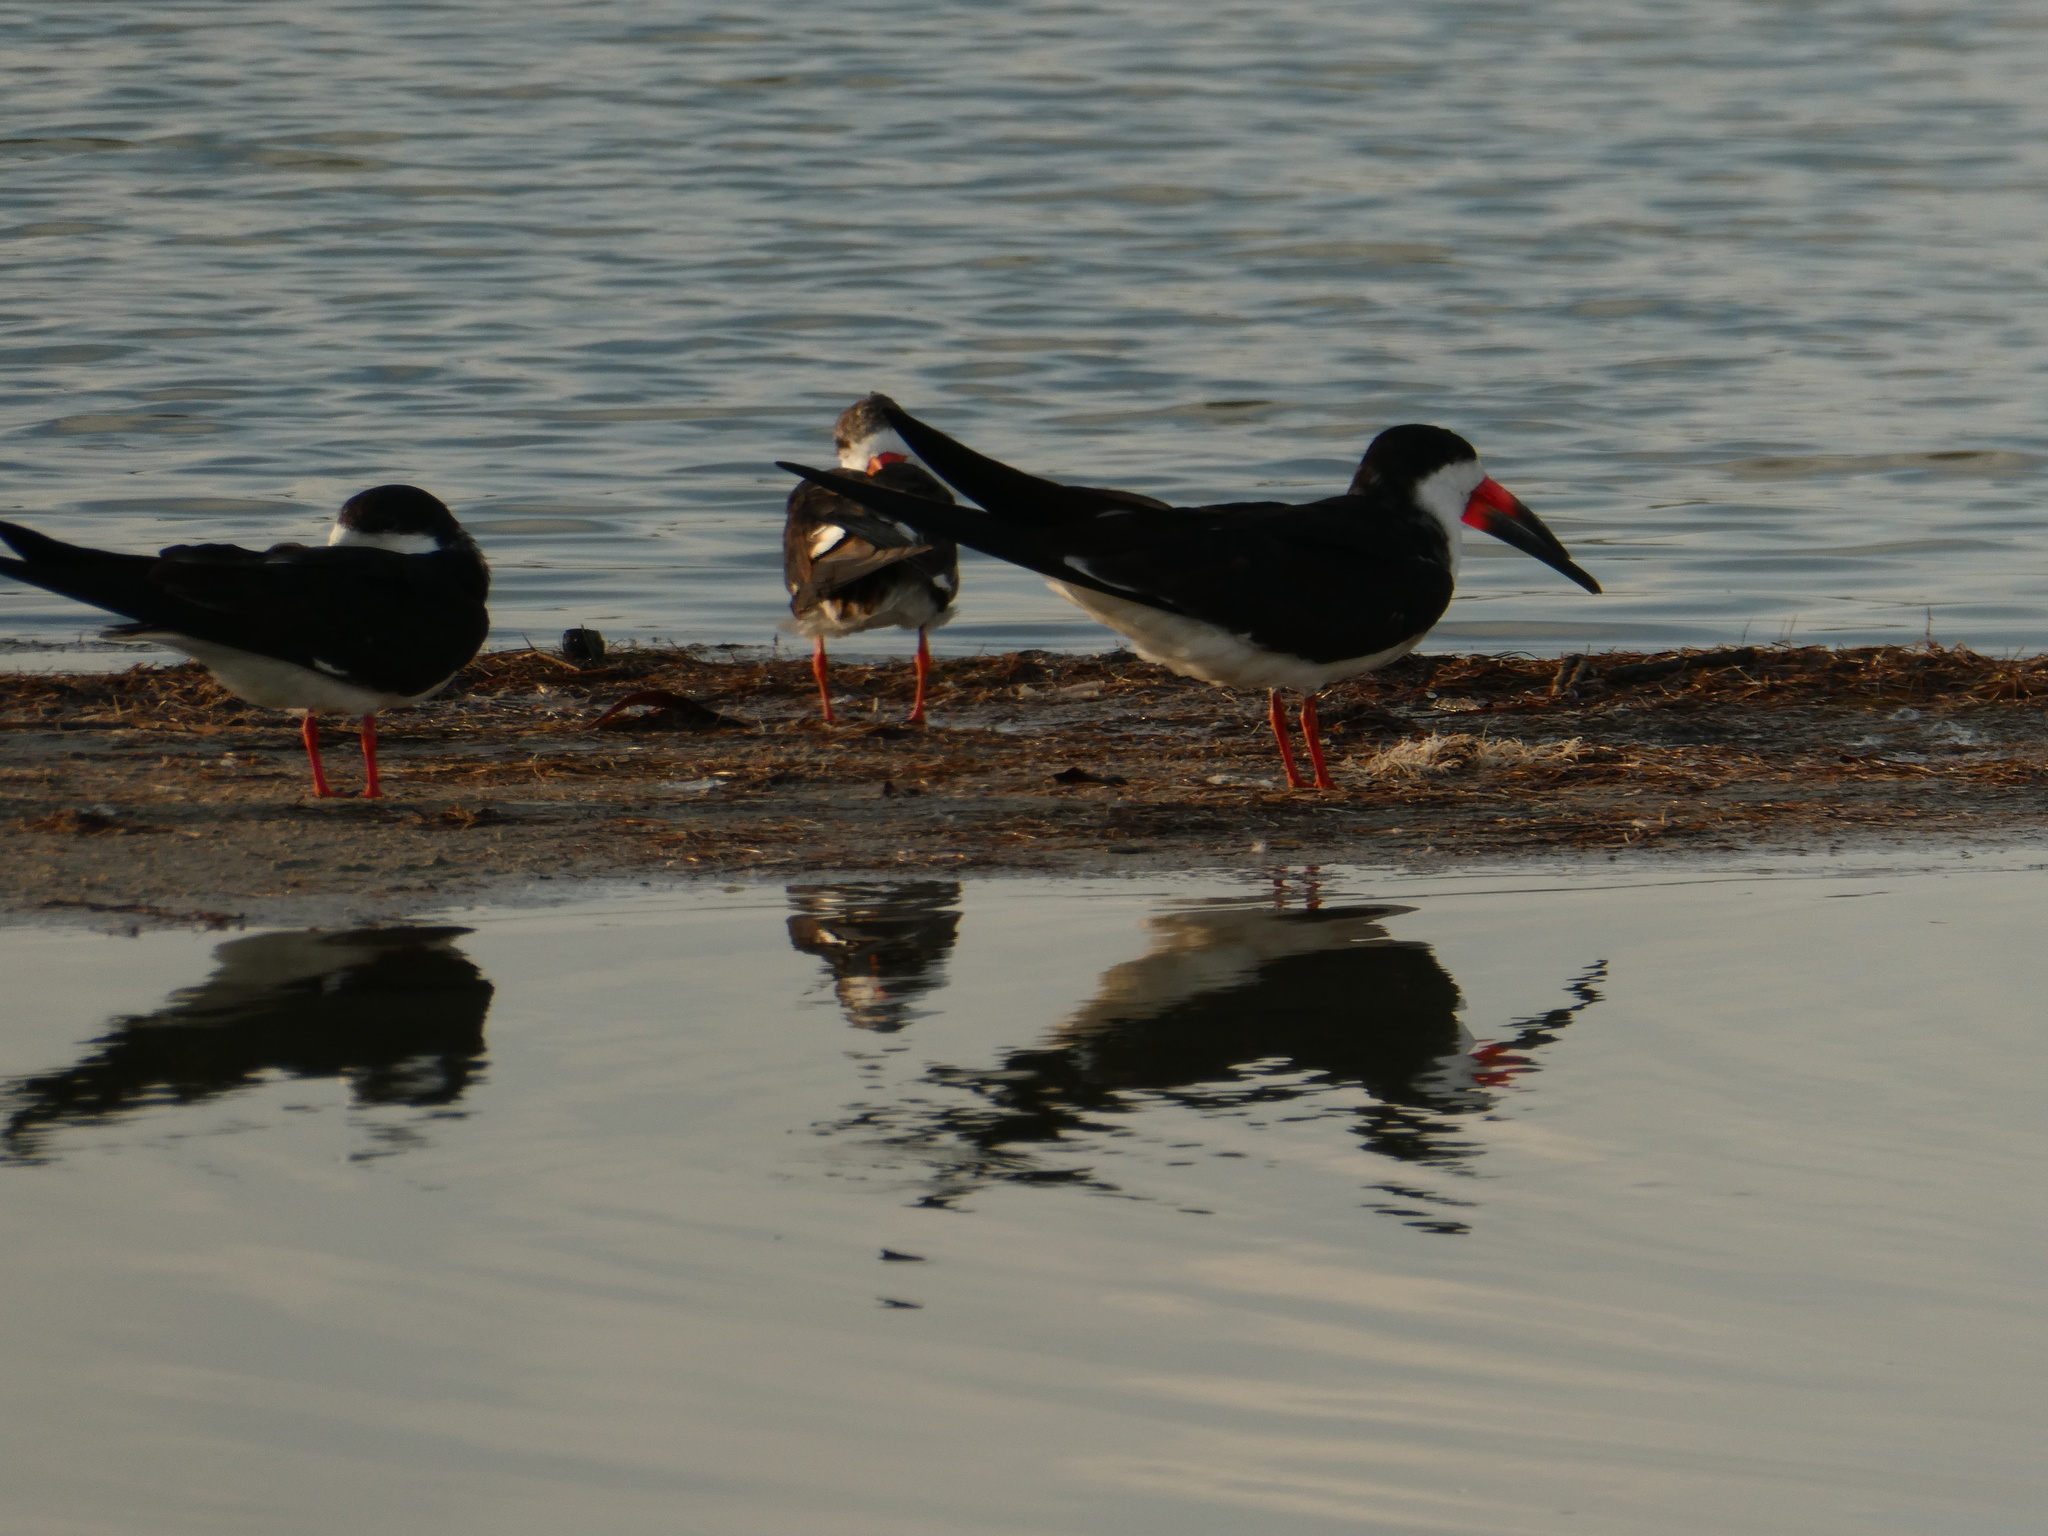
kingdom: Animalia
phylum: Chordata
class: Aves
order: Charadriiformes
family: Laridae
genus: Rynchops
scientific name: Rynchops niger
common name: Black skimmer
